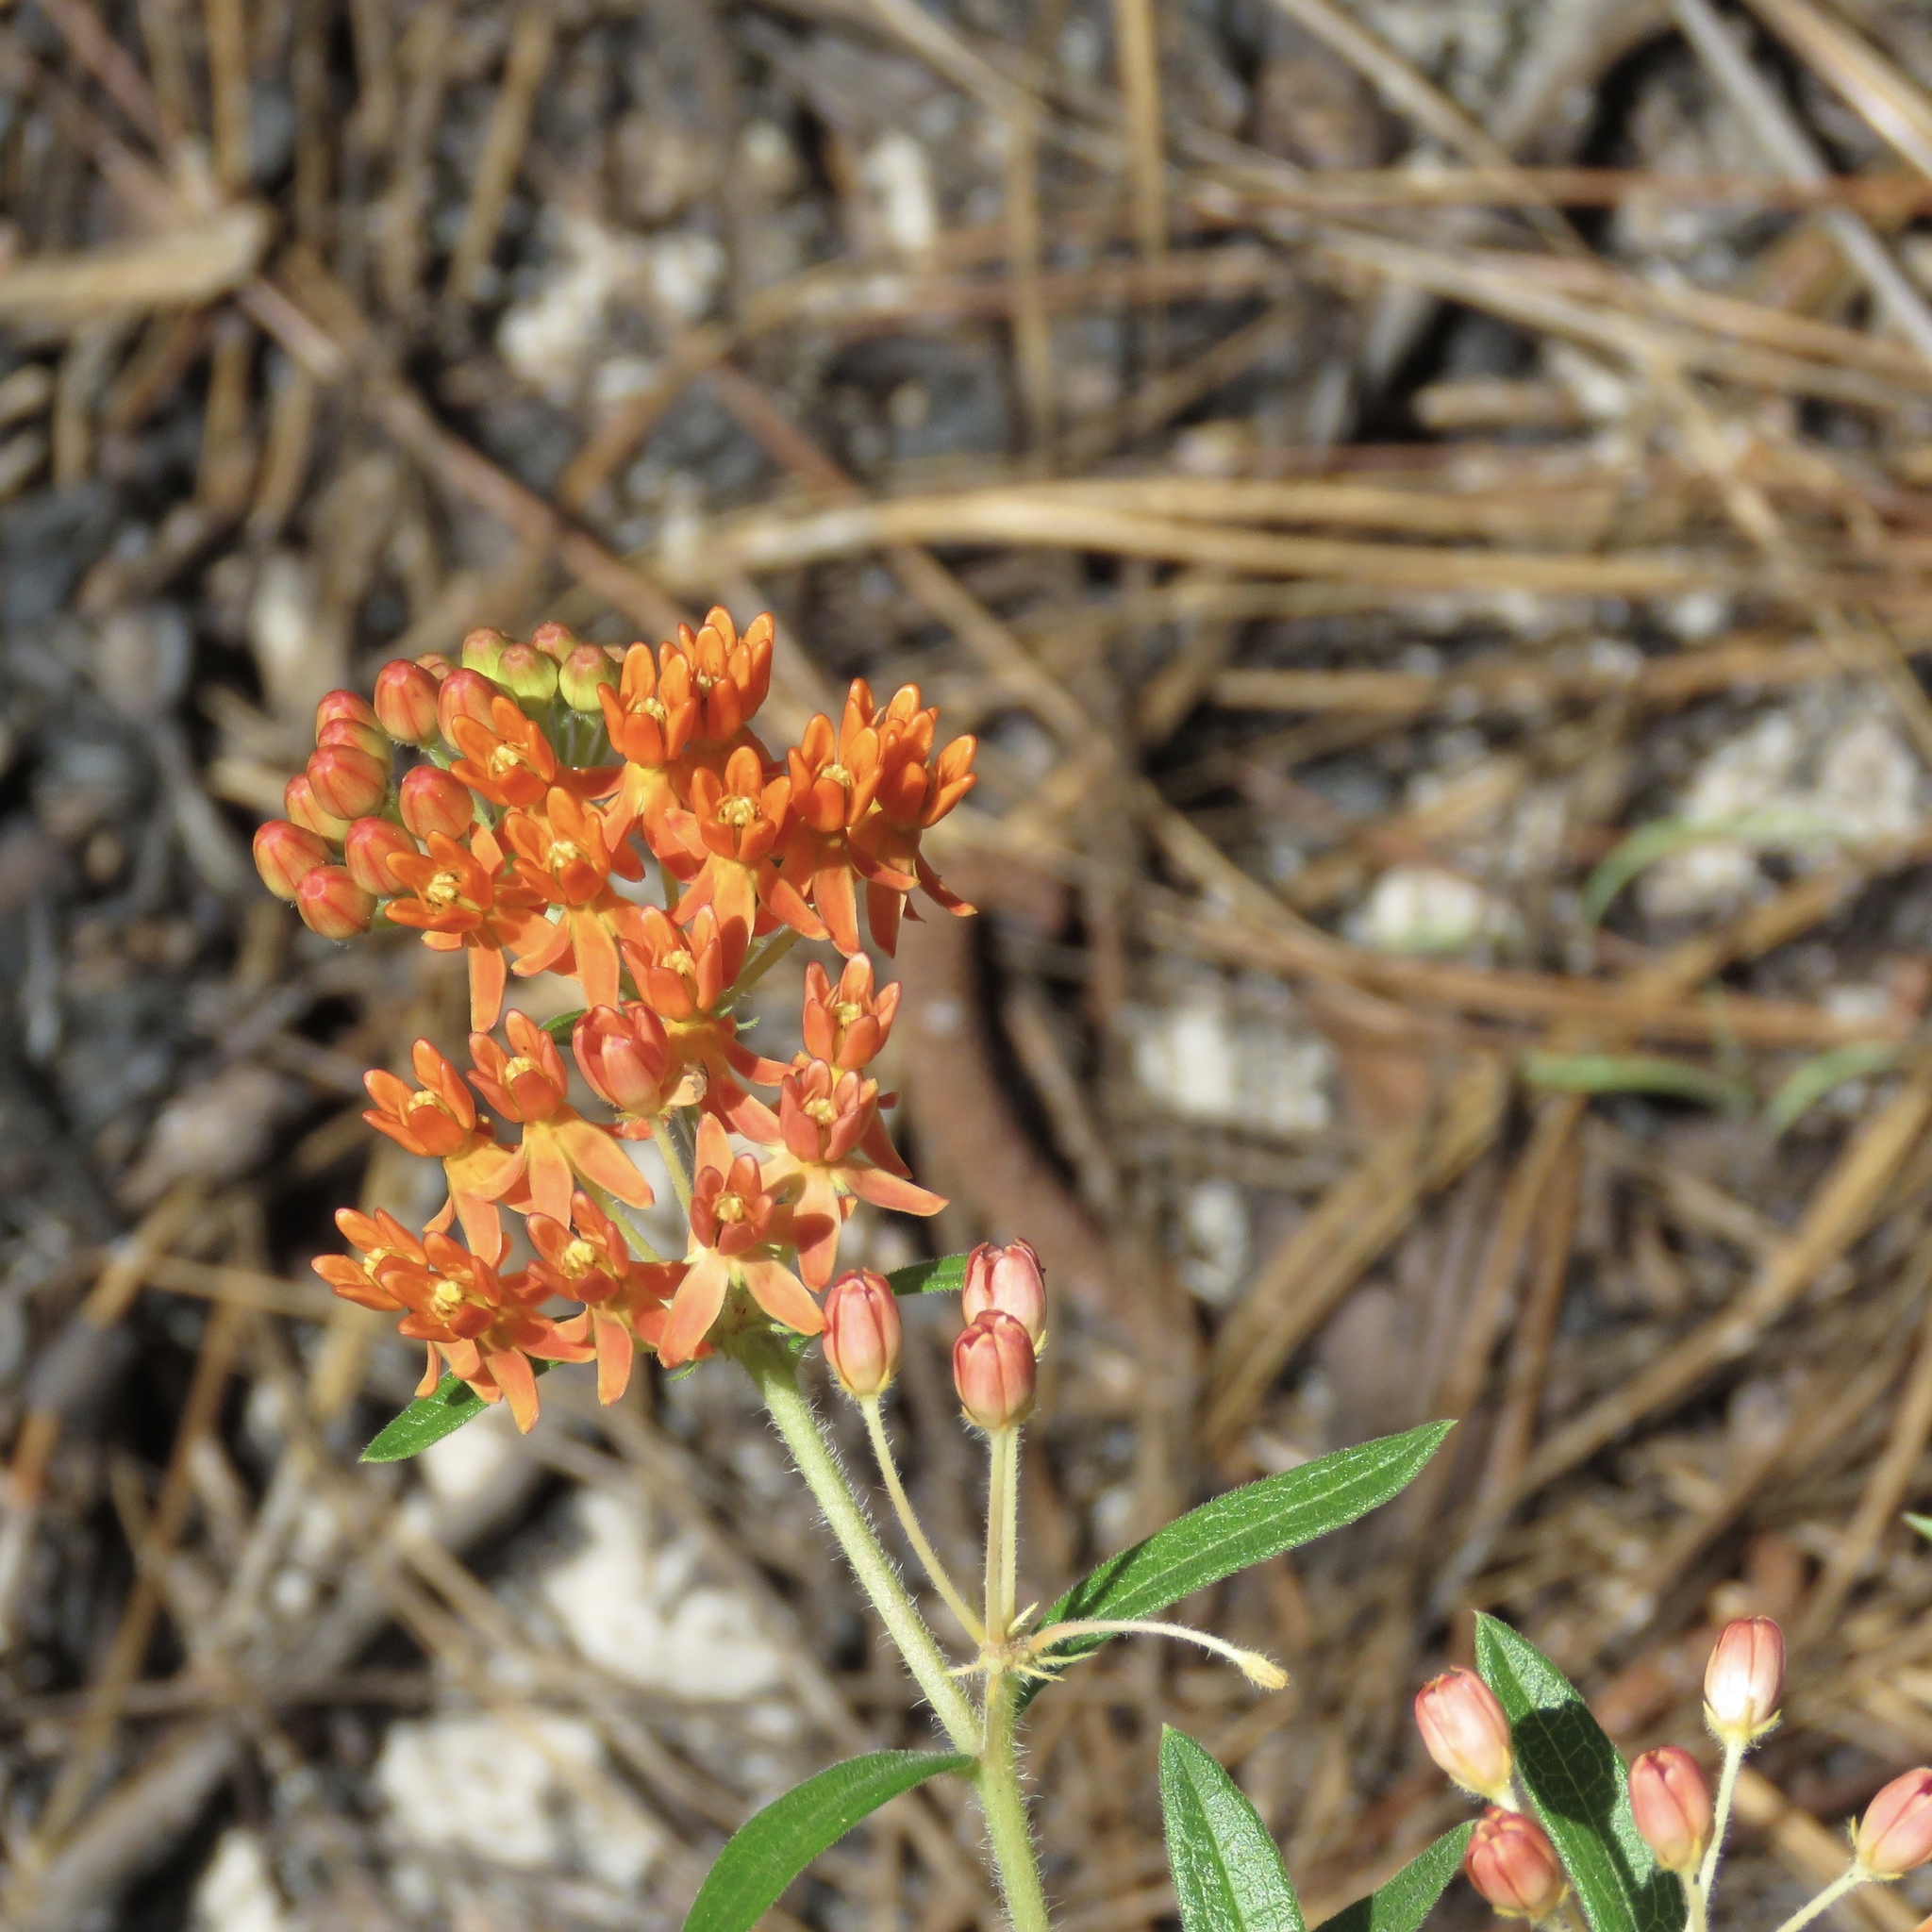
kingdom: Plantae
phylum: Tracheophyta
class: Magnoliopsida
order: Gentianales
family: Apocynaceae
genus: Asclepias
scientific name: Asclepias tuberosa
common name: Butterfly milkweed
